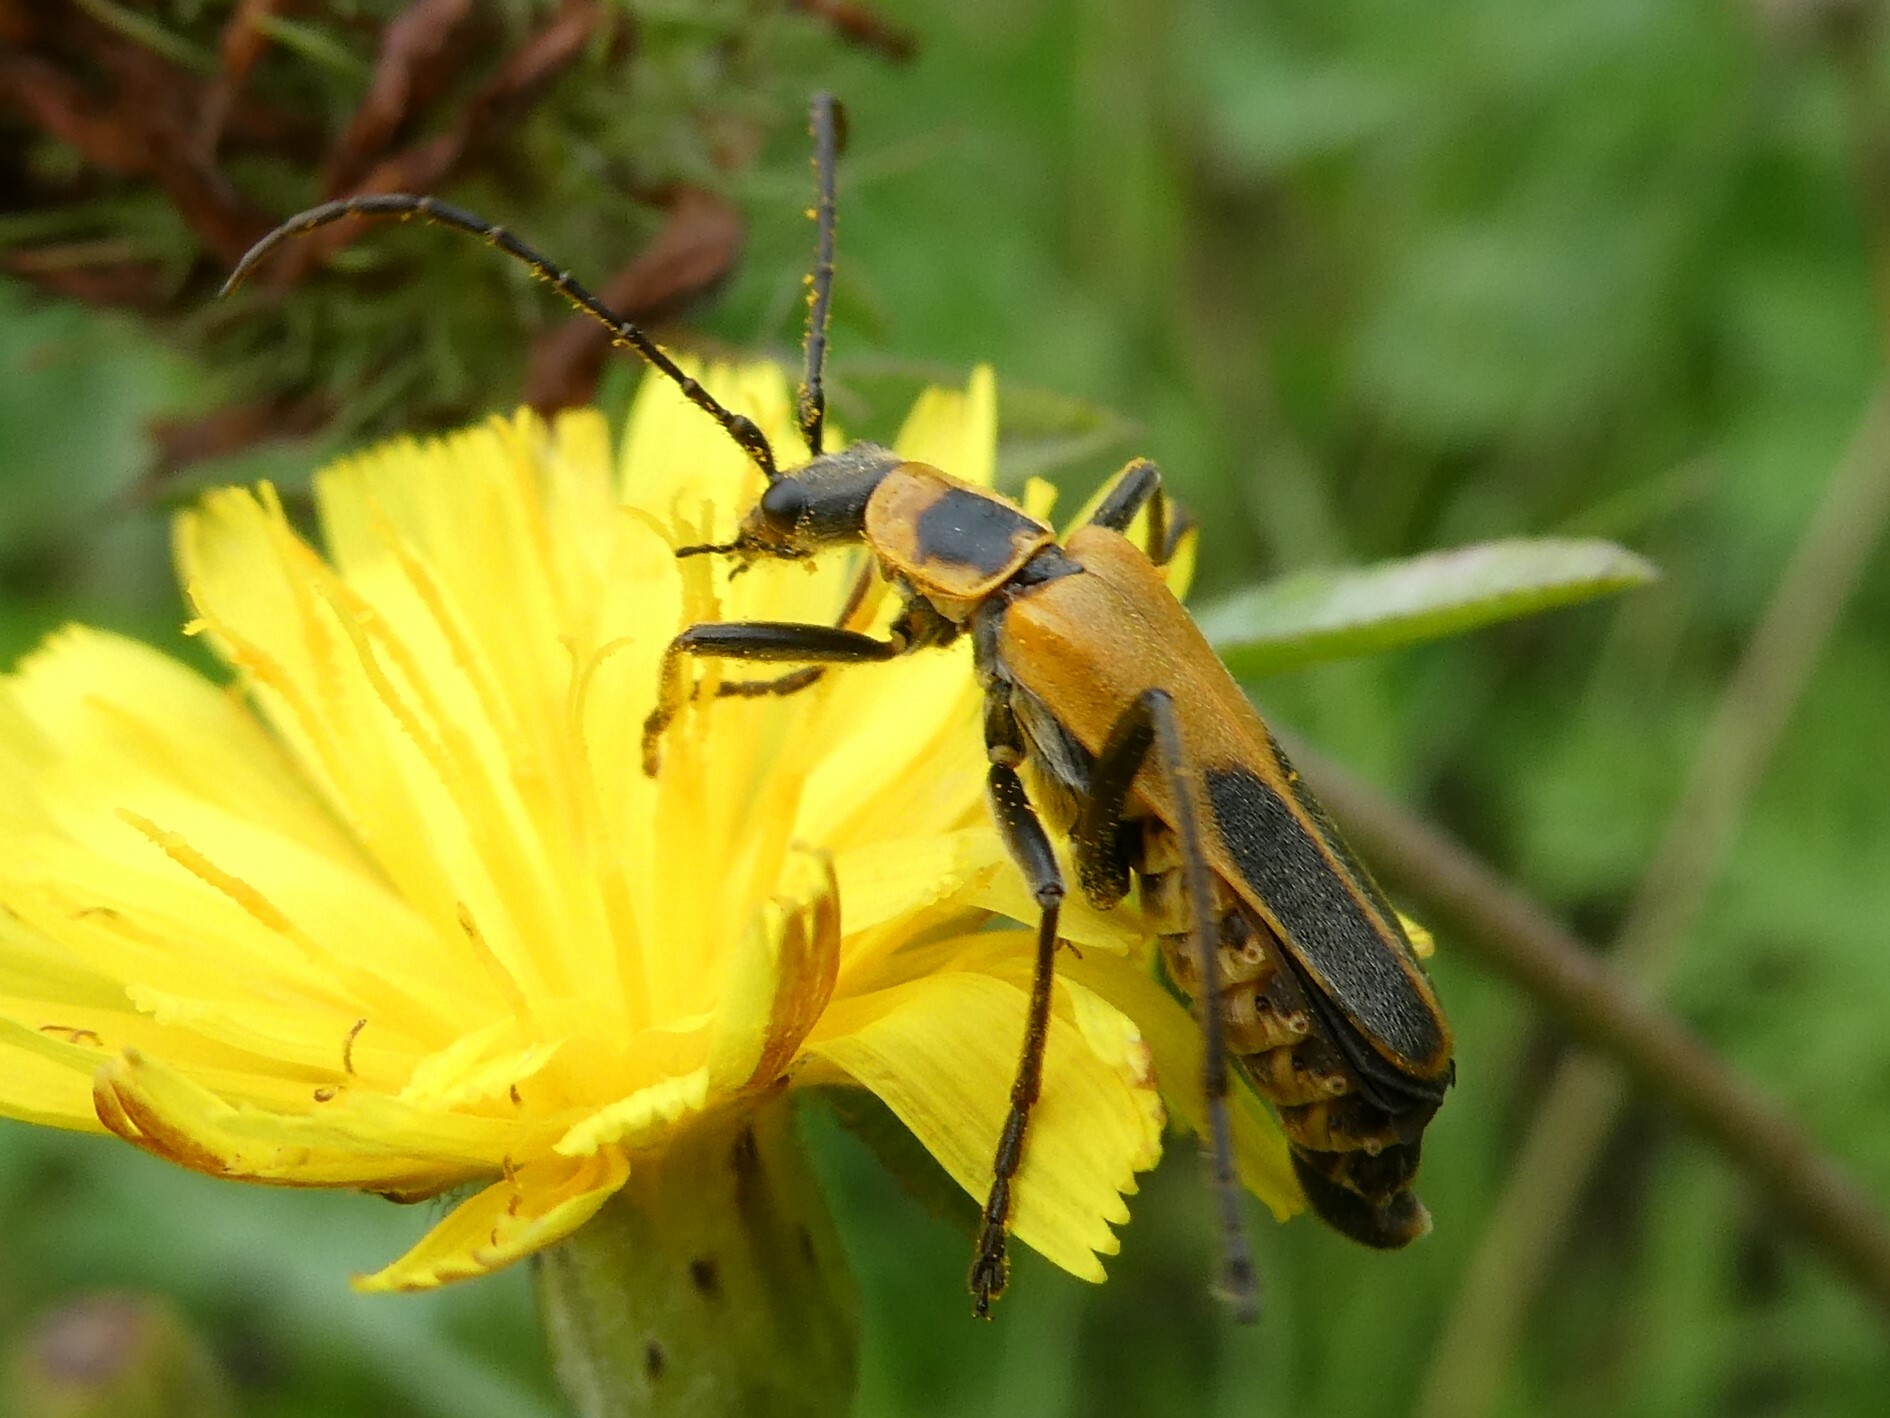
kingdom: Animalia
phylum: Arthropoda
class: Insecta
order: Coleoptera
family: Cantharidae
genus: Chauliognathus
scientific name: Chauliognathus pensylvanicus
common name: Goldenrod soldier beetle
